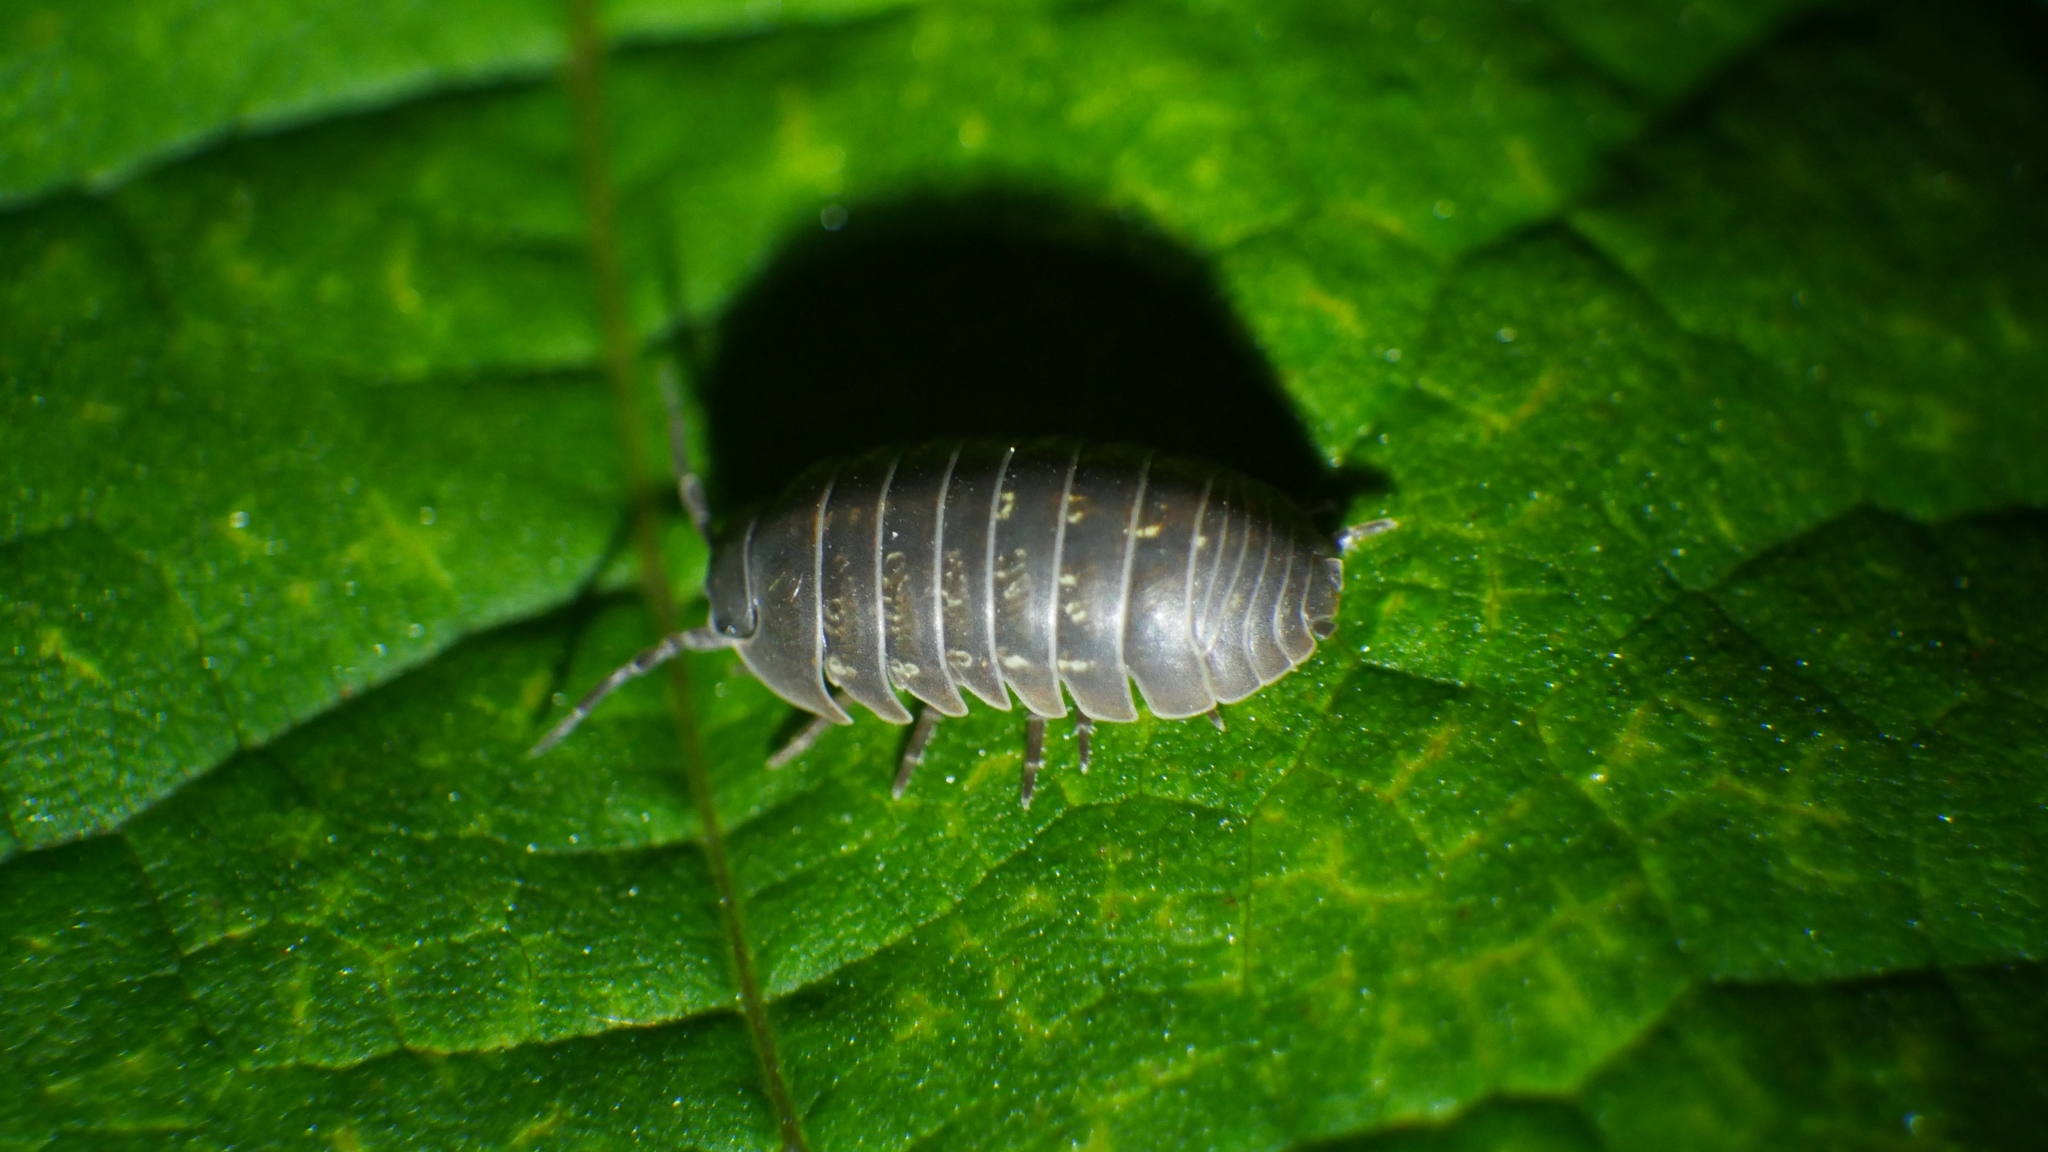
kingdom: Animalia
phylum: Arthropoda
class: Malacostraca
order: Isopoda
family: Armadillidiidae
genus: Armadillidium
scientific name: Armadillidium vulgare
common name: Common pill woodlouse
